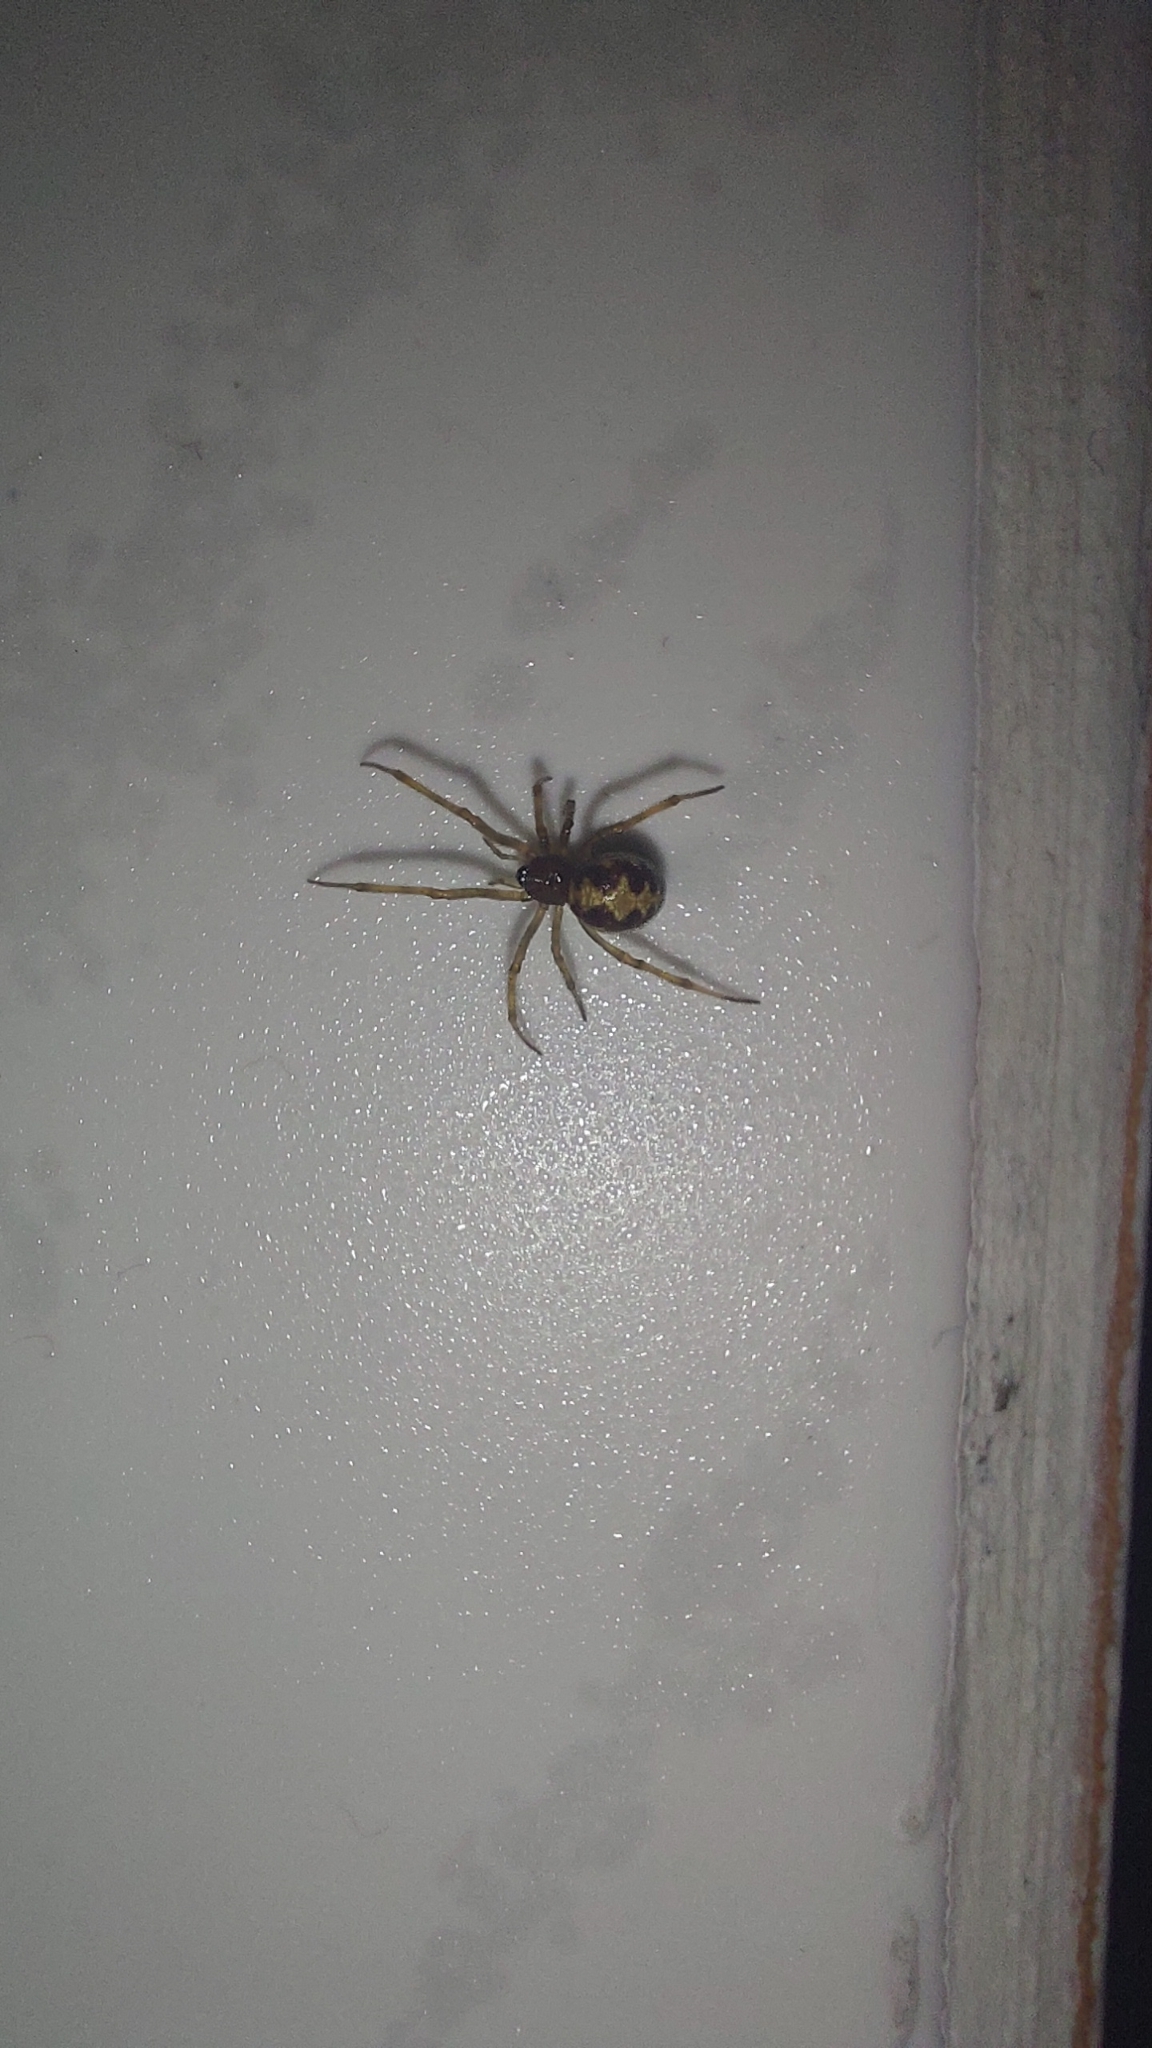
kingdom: Animalia
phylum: Arthropoda
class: Arachnida
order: Araneae
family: Theridiidae
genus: Steatoda
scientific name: Steatoda triangulosa
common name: Triangulate bud spider
